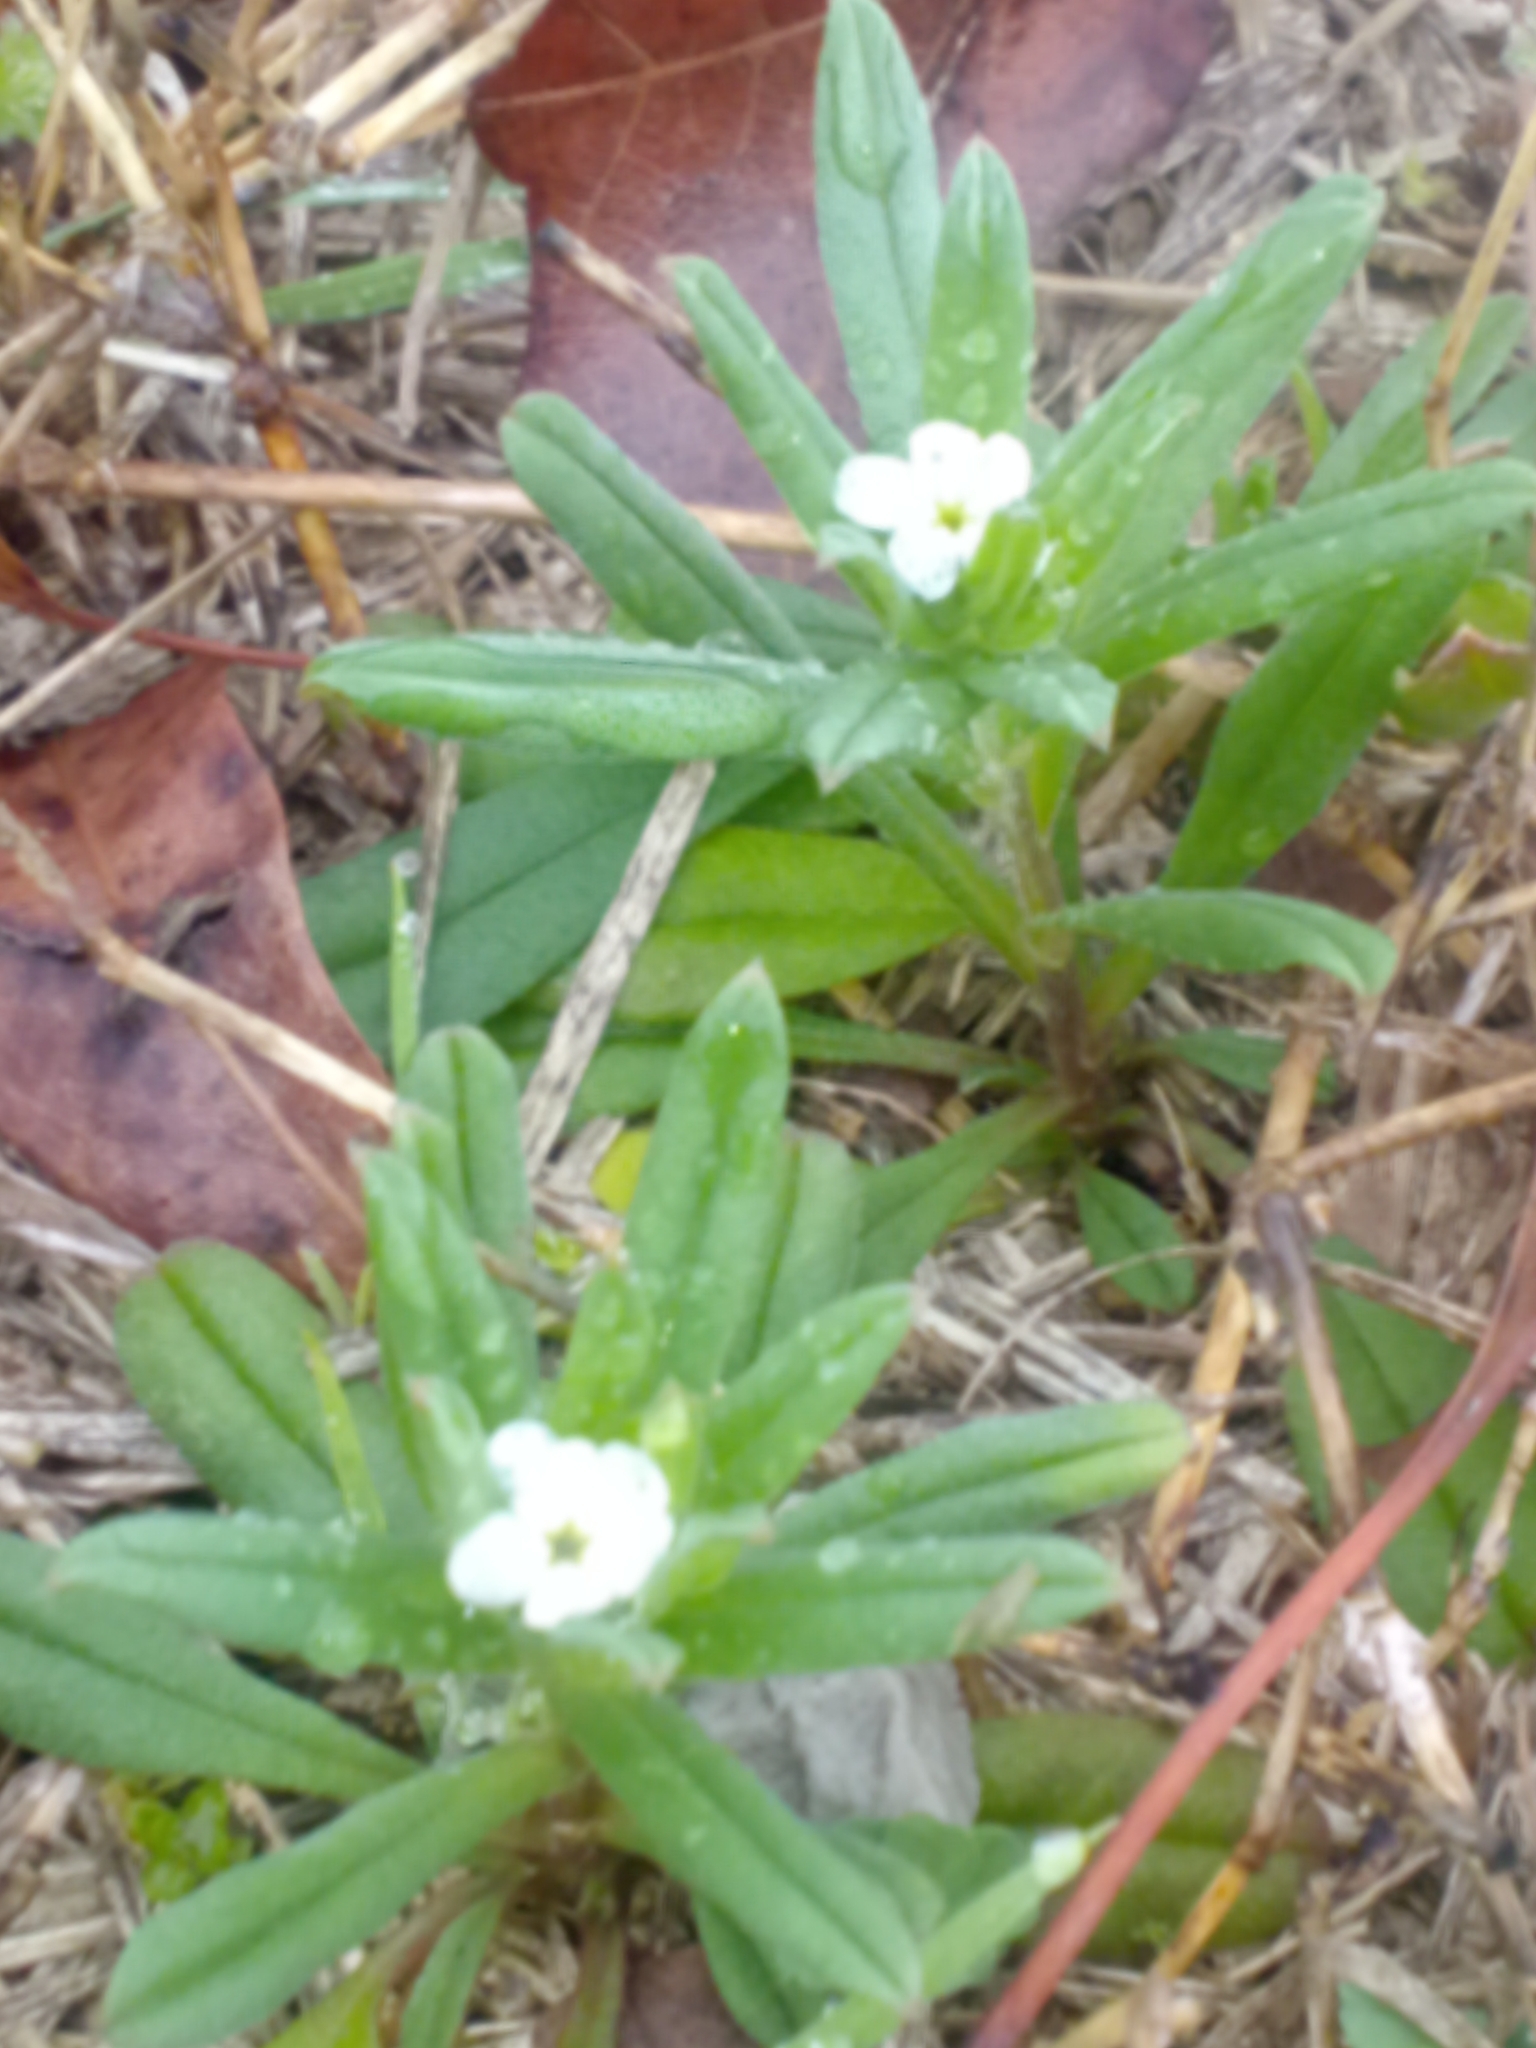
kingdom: Plantae
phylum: Tracheophyta
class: Magnoliopsida
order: Boraginales
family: Boraginaceae
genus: Buglossoides
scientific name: Buglossoides arvensis
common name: Corn gromwell
